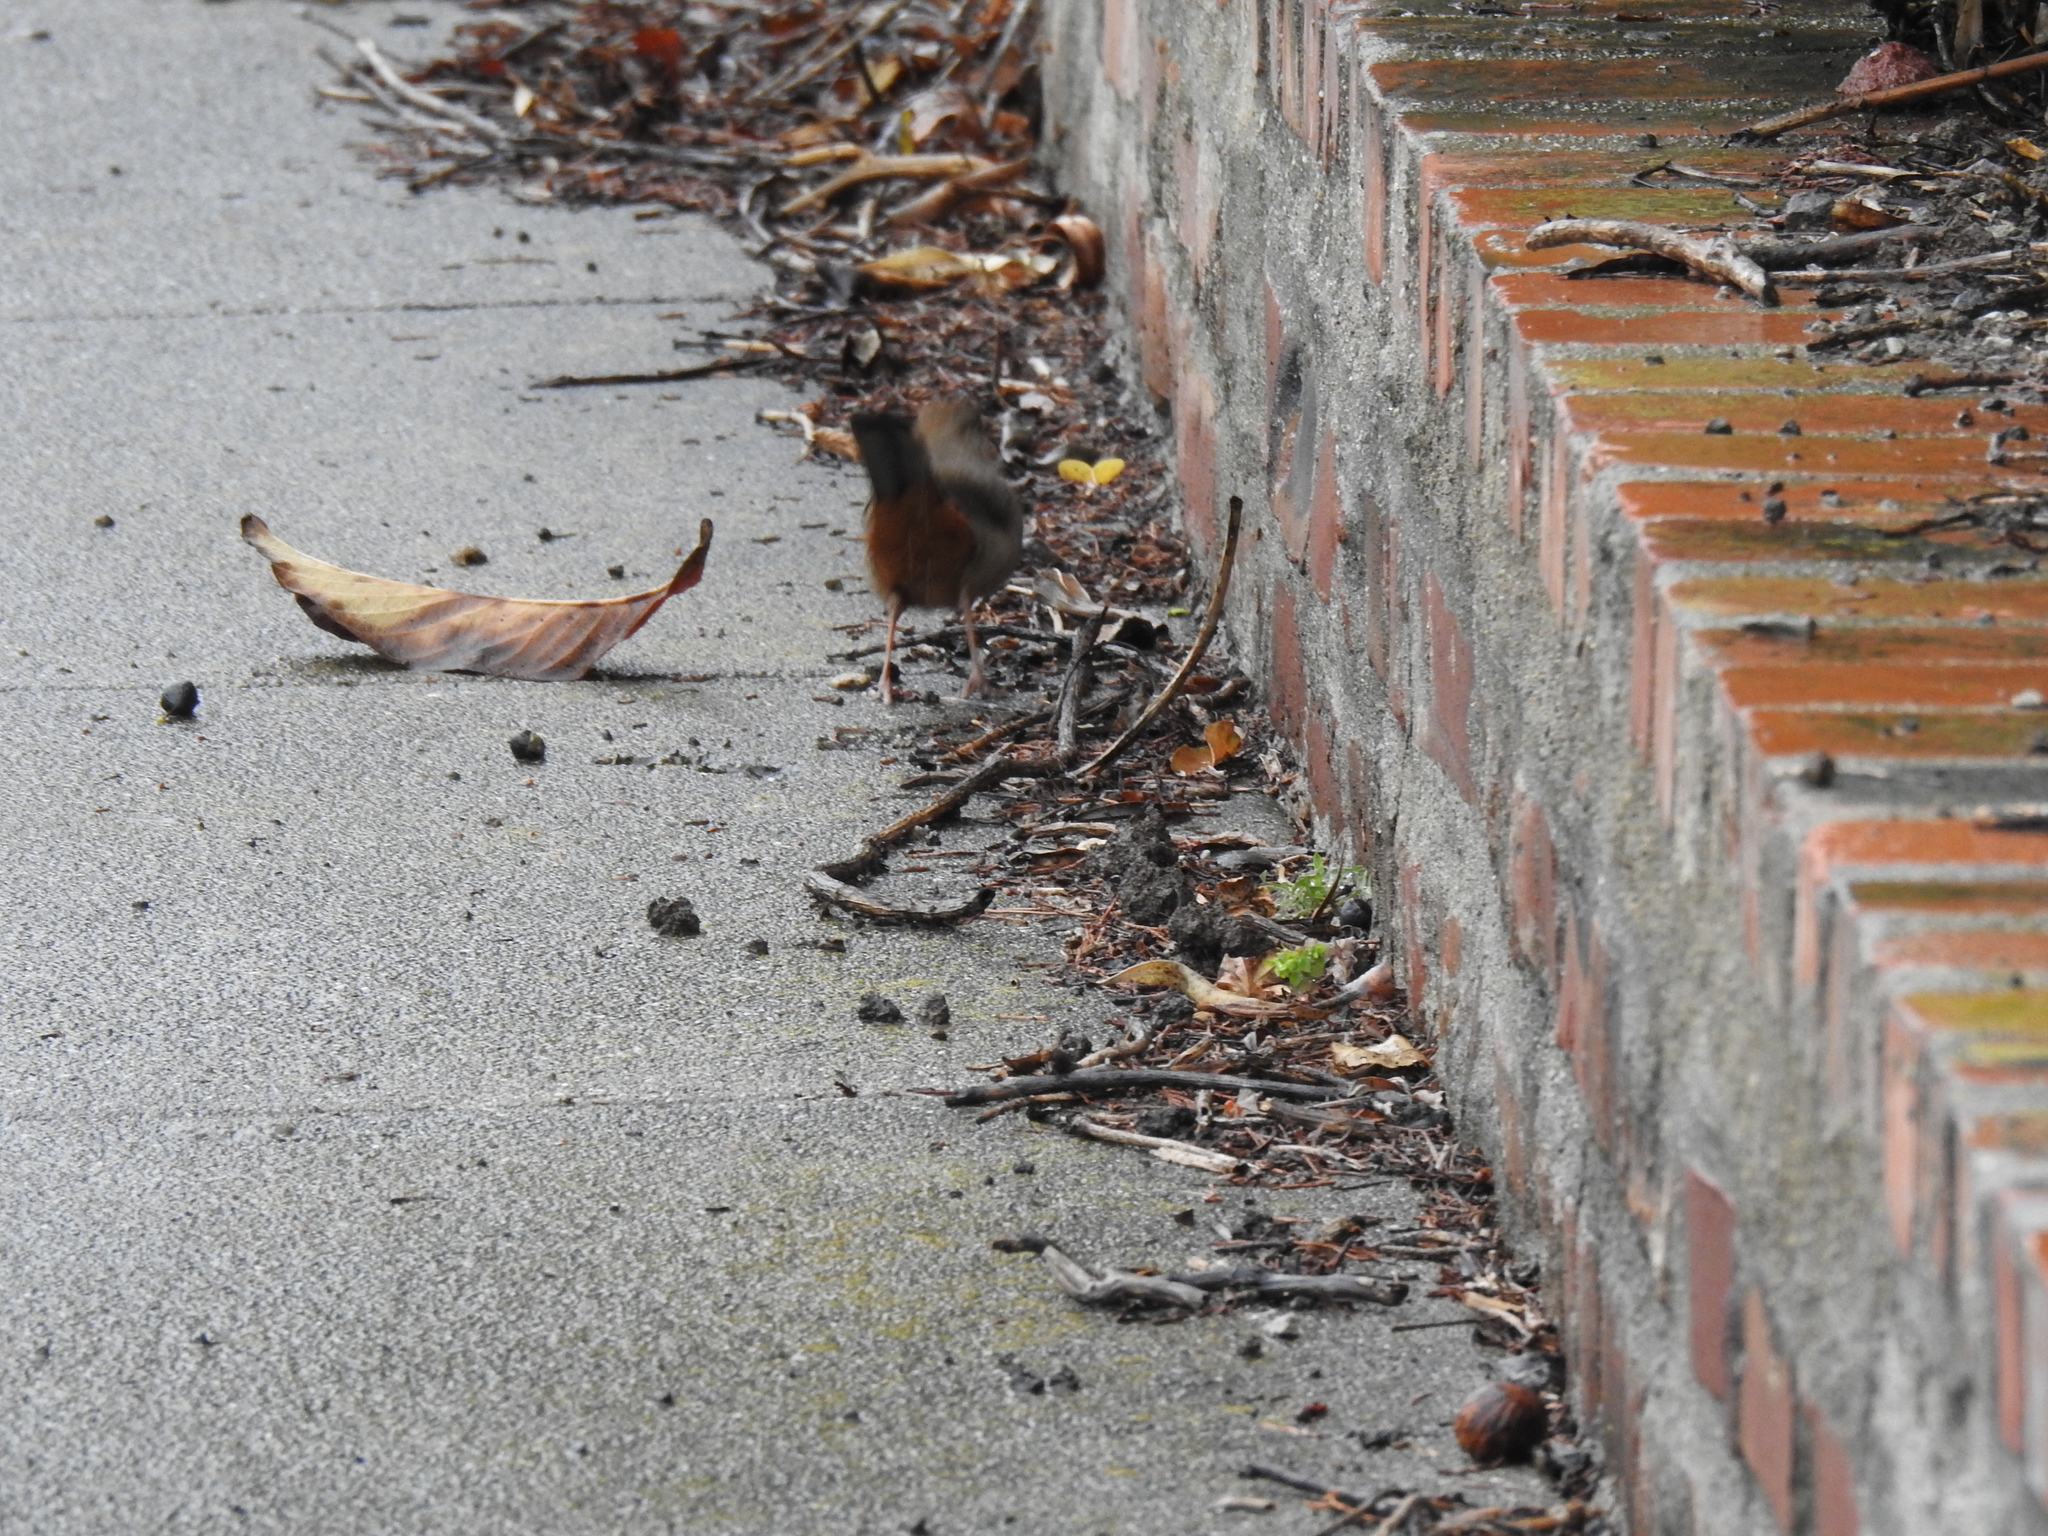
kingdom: Animalia
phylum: Chordata
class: Aves
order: Passeriformes
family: Passerellidae
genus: Melozone
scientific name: Melozone crissalis
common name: California towhee
